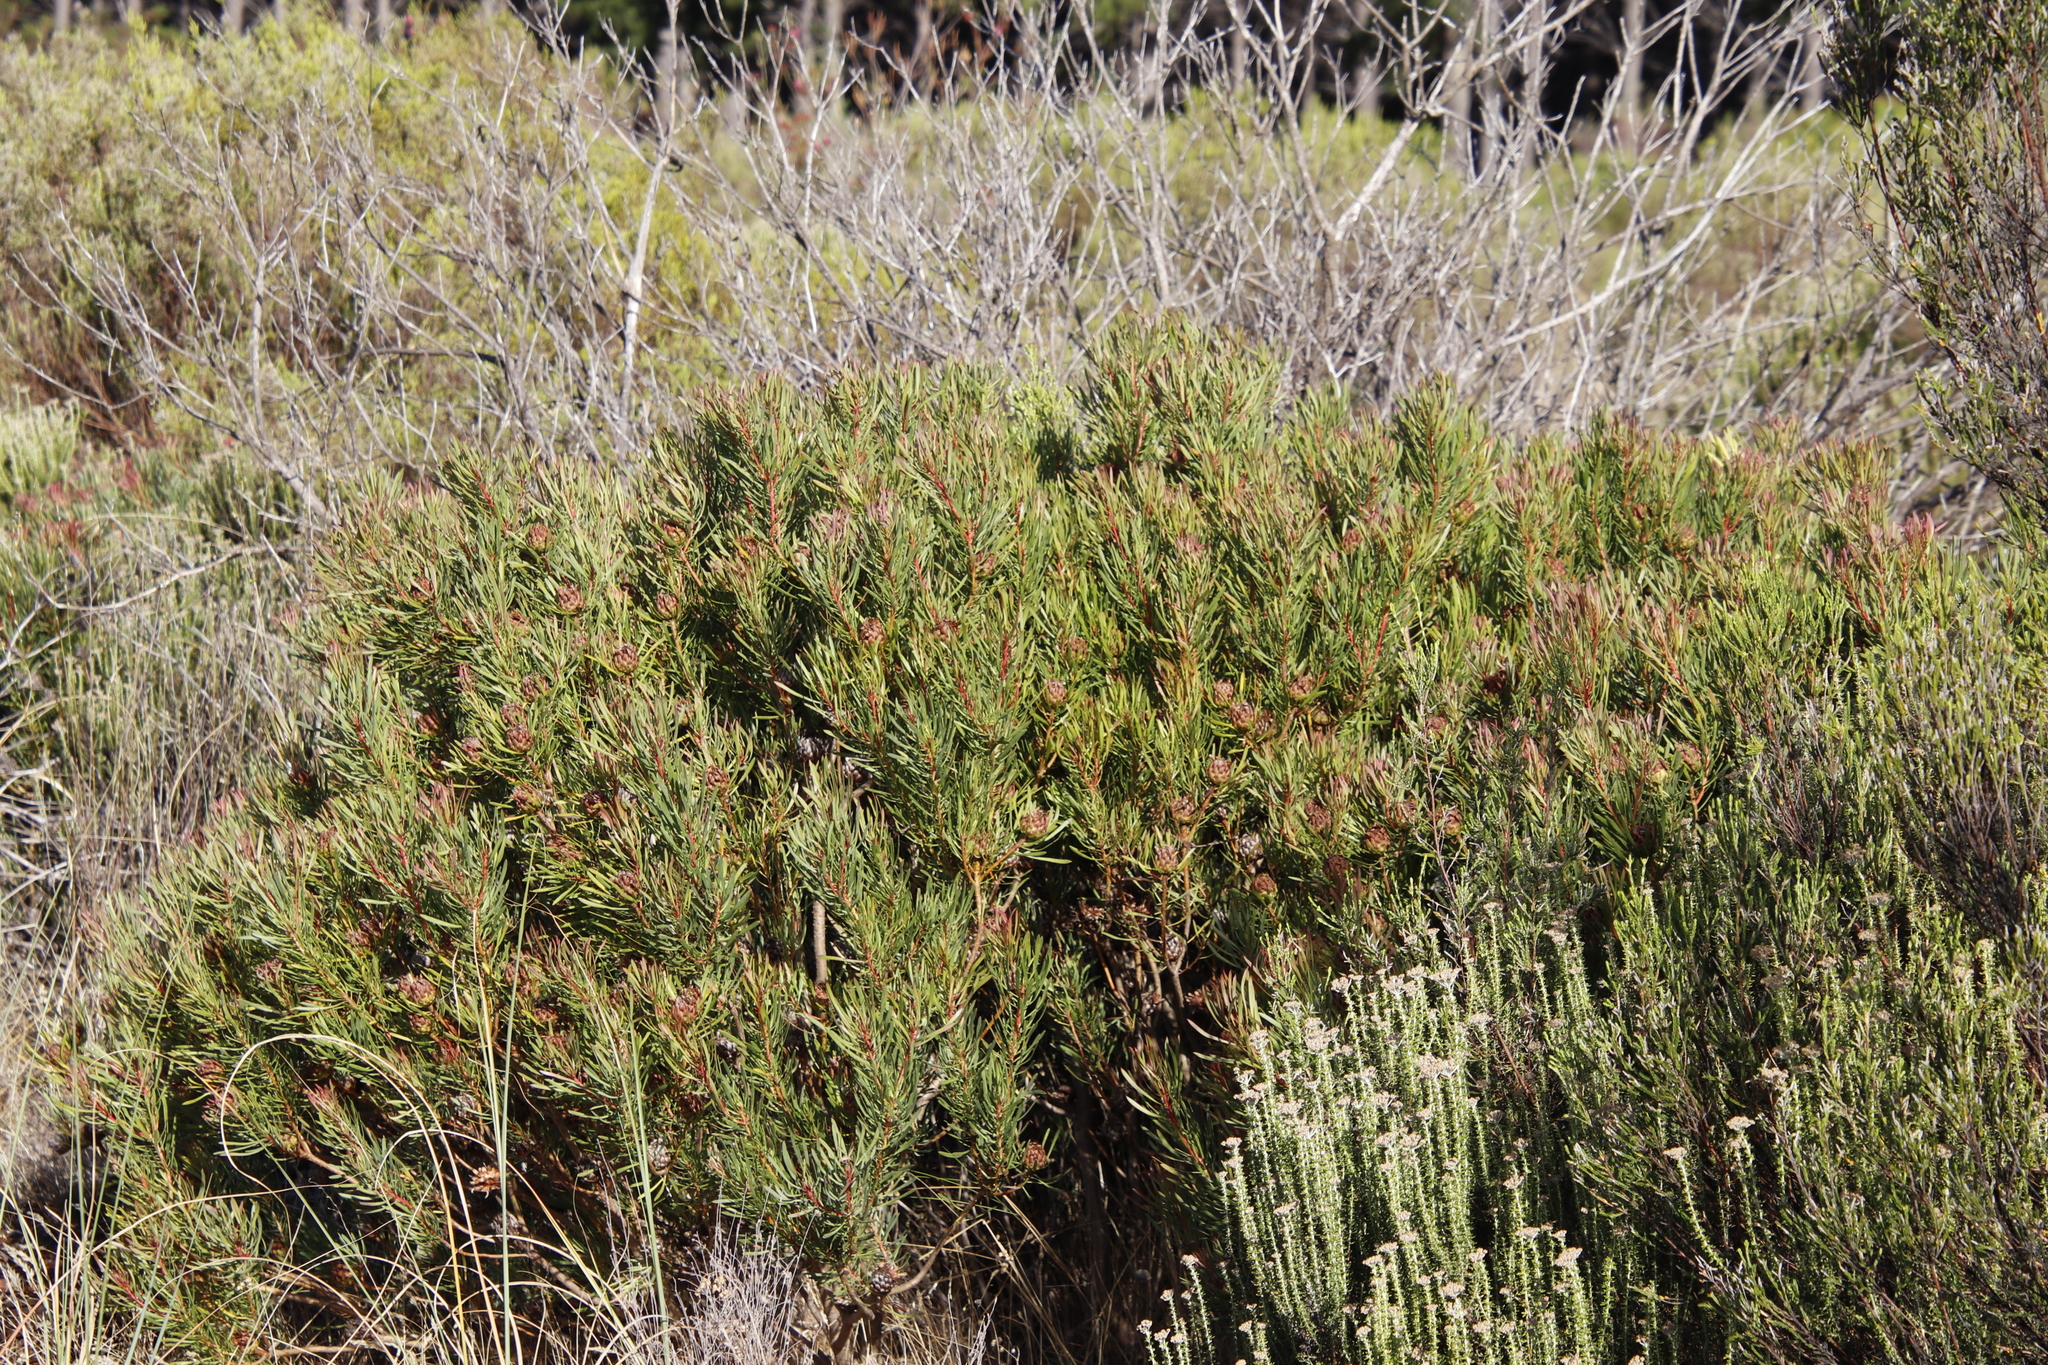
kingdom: Plantae
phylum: Tracheophyta
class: Magnoliopsida
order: Proteales
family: Proteaceae
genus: Protea
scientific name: Protea scolymocephala
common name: Thistle sugarbush
